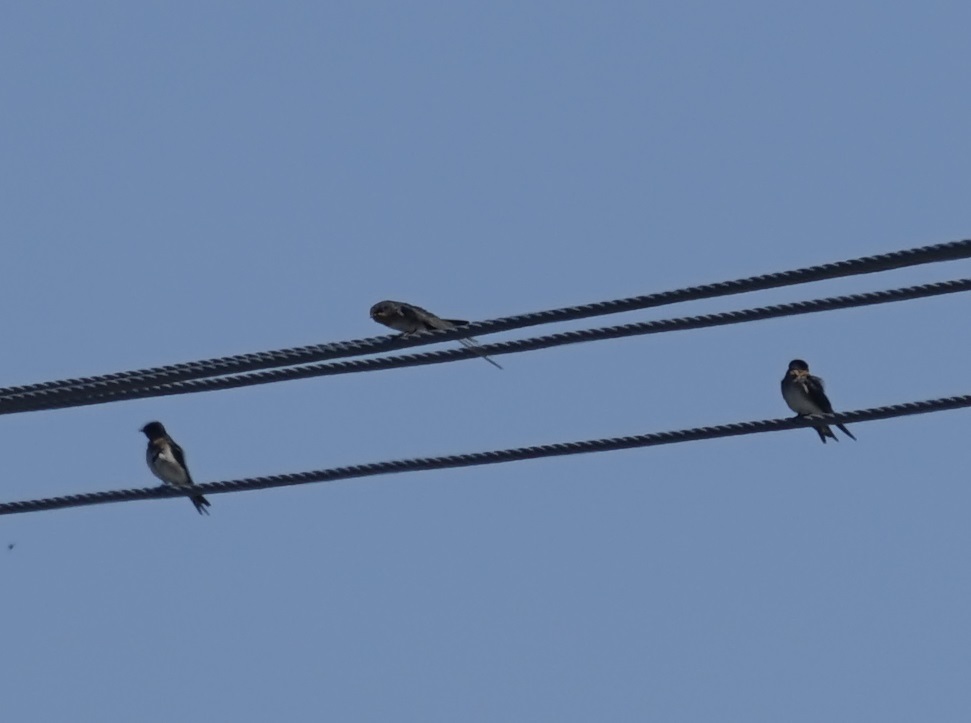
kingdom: Animalia
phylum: Chordata
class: Aves
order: Passeriformes
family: Hirundinidae
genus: Hirundo
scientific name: Hirundo neoxena
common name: Welcome swallow
